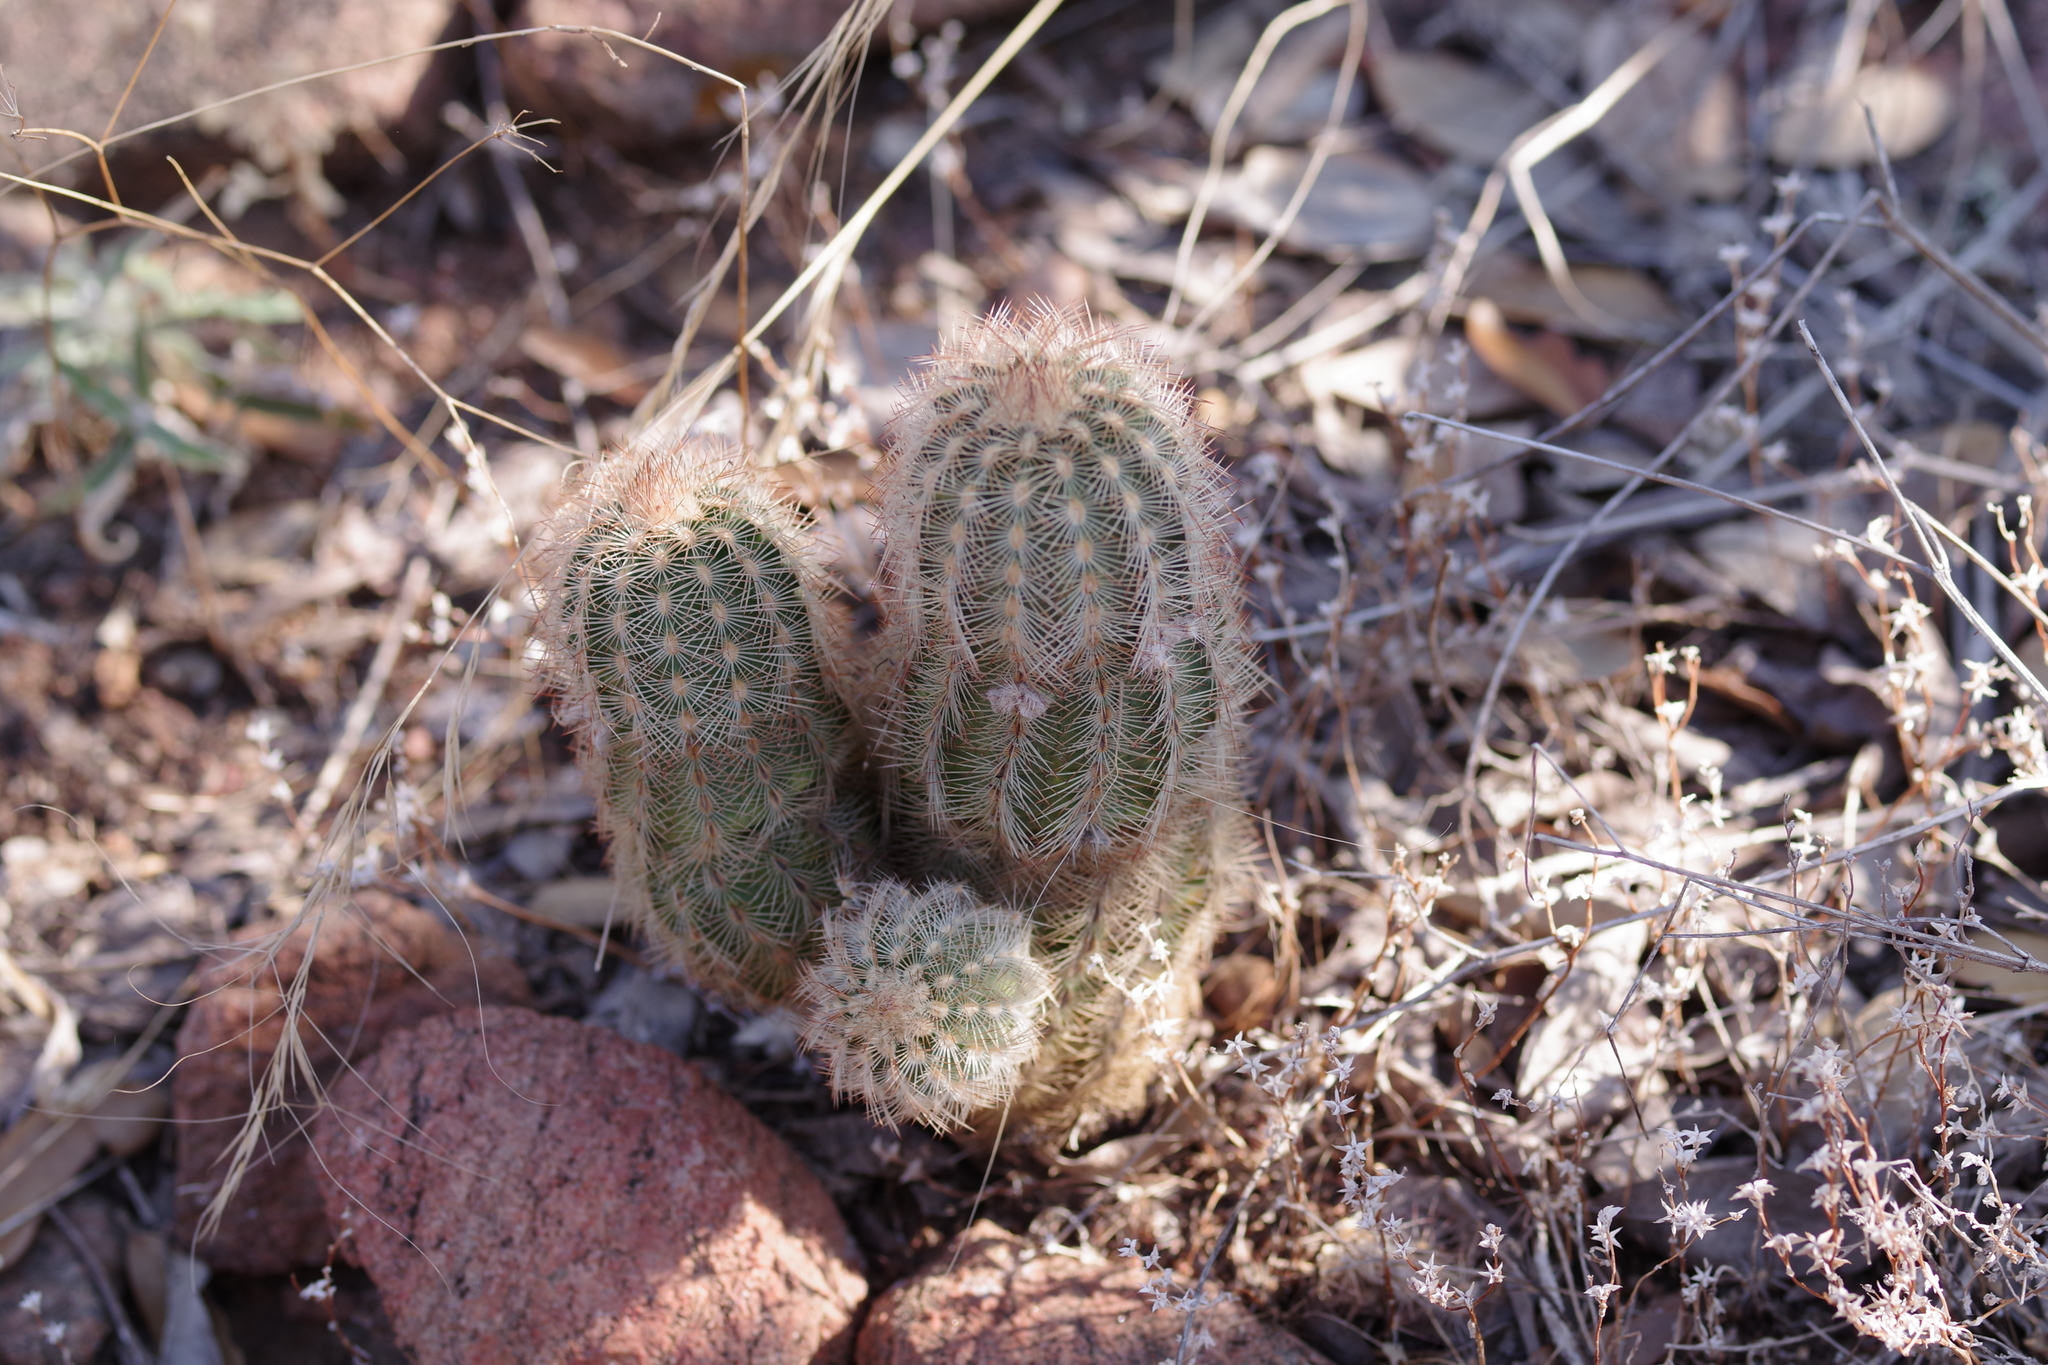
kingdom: Plantae
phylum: Tracheophyta
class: Magnoliopsida
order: Caryophyllales
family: Cactaceae
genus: Echinocereus
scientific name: Echinocereus reichenbachii
